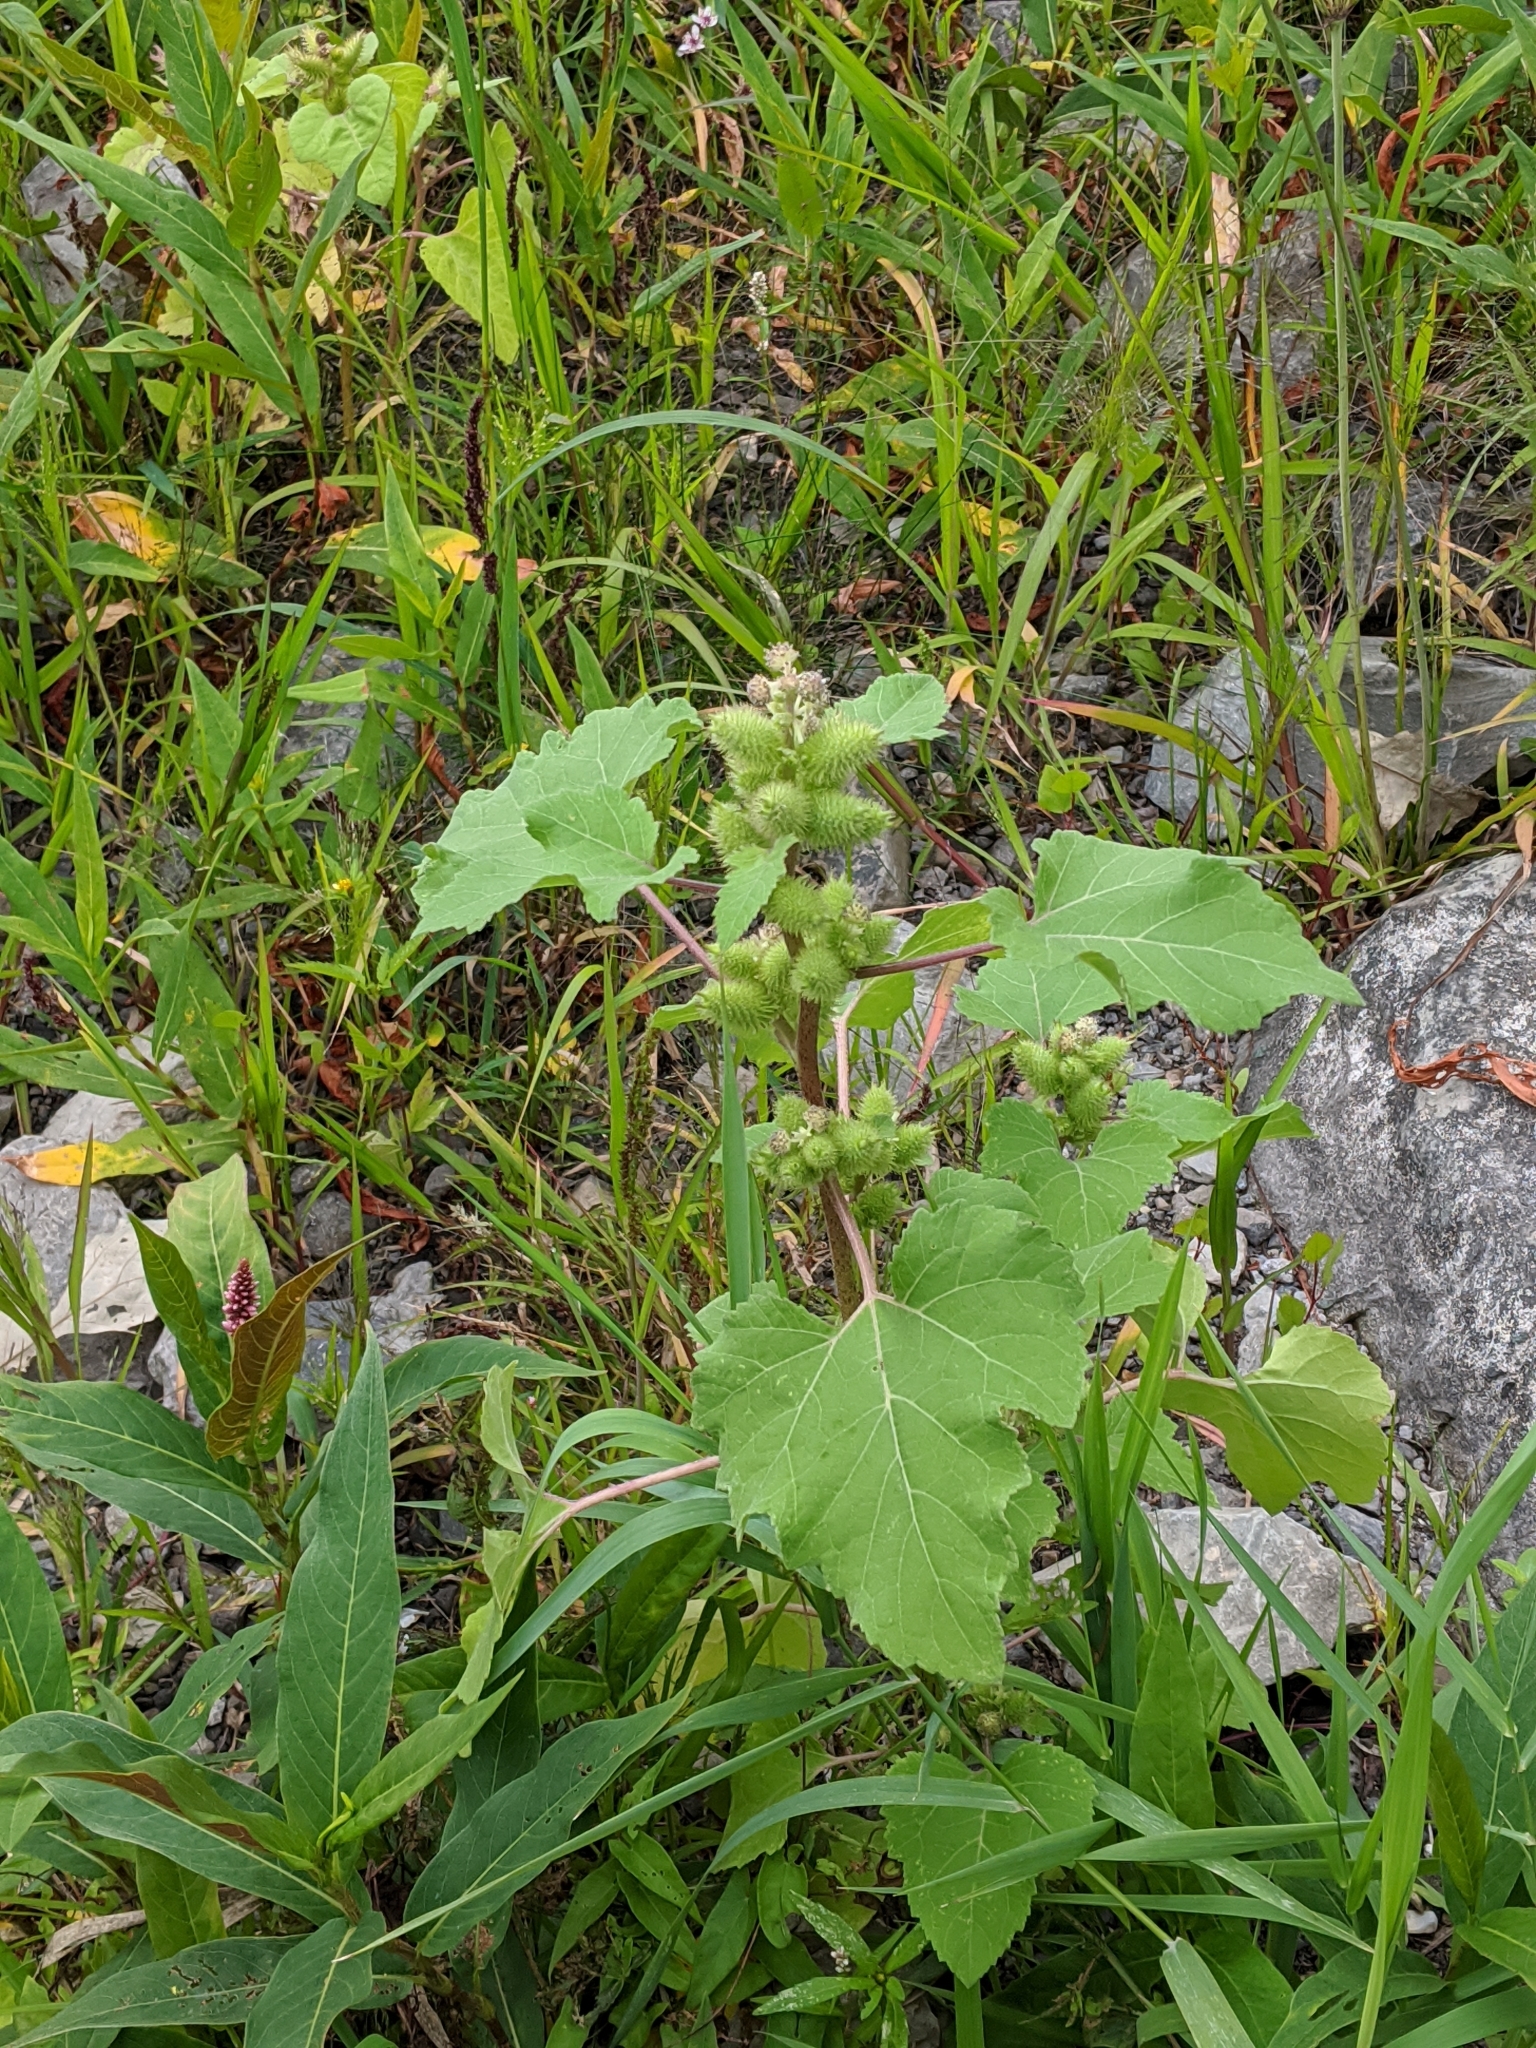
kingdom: Plantae
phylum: Tracheophyta
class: Magnoliopsida
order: Asterales
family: Asteraceae
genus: Xanthium
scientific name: Xanthium strumarium
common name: Rough cocklebur
